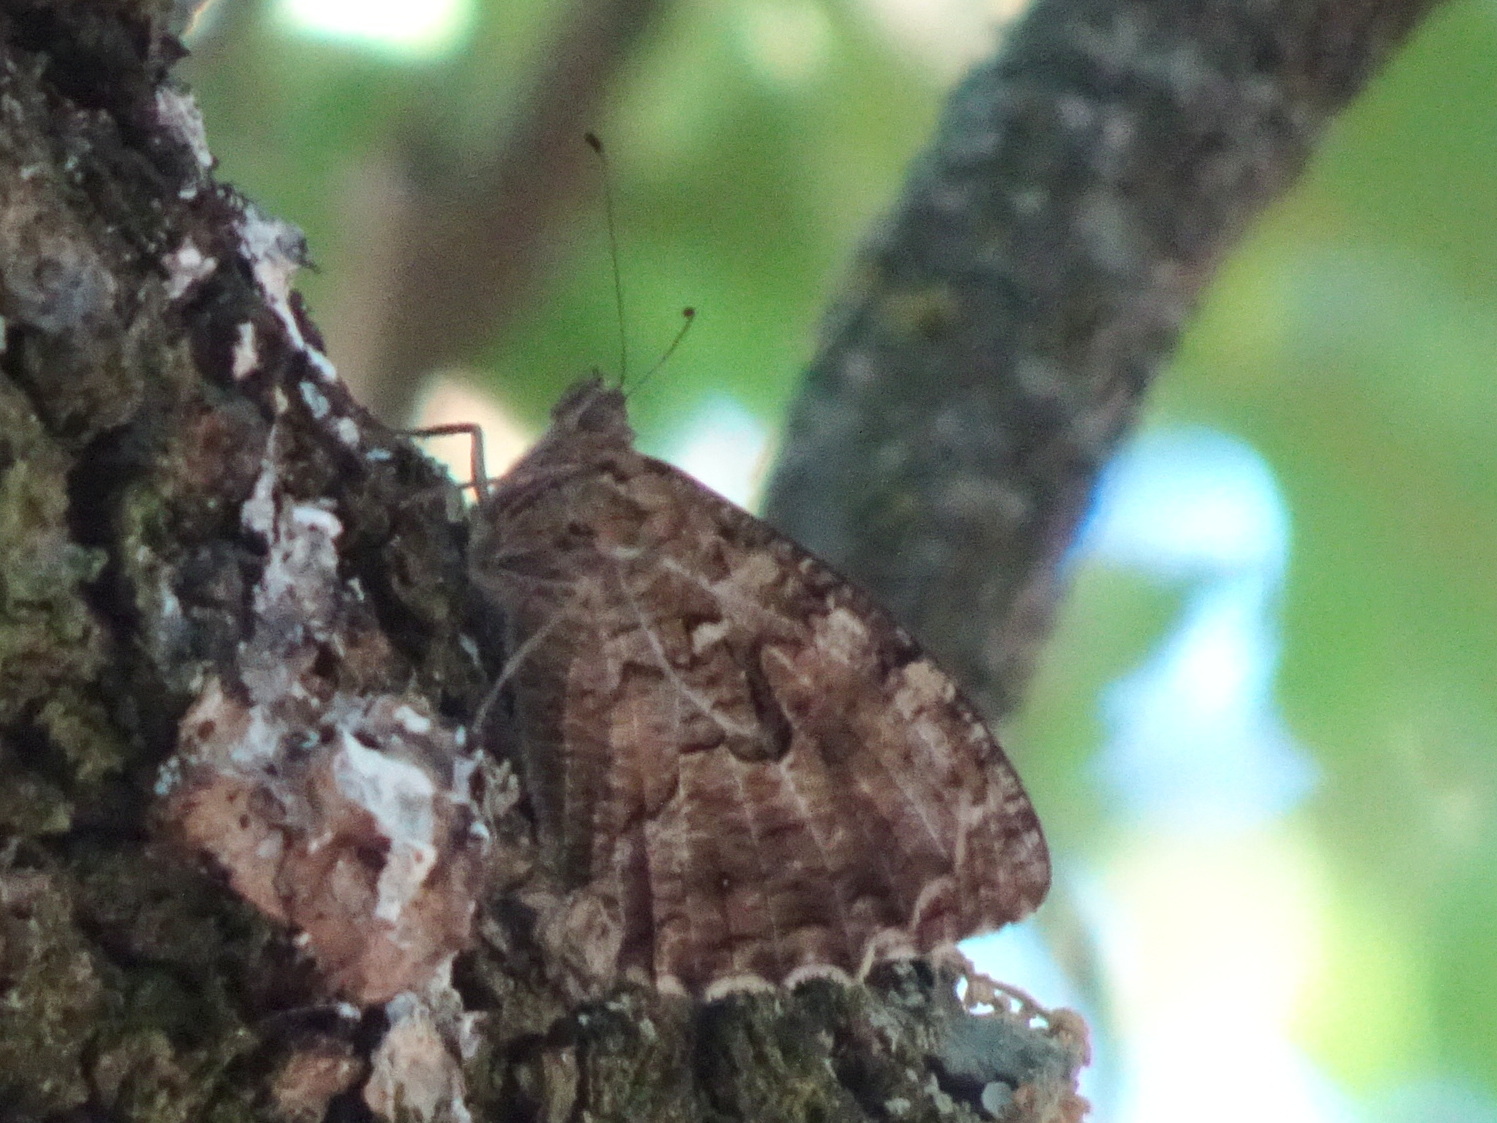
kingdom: Animalia
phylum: Arthropoda
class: Insecta
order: Lepidoptera
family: Nymphalidae
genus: Hipparchia
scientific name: Hipparchia semele
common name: Grayling
